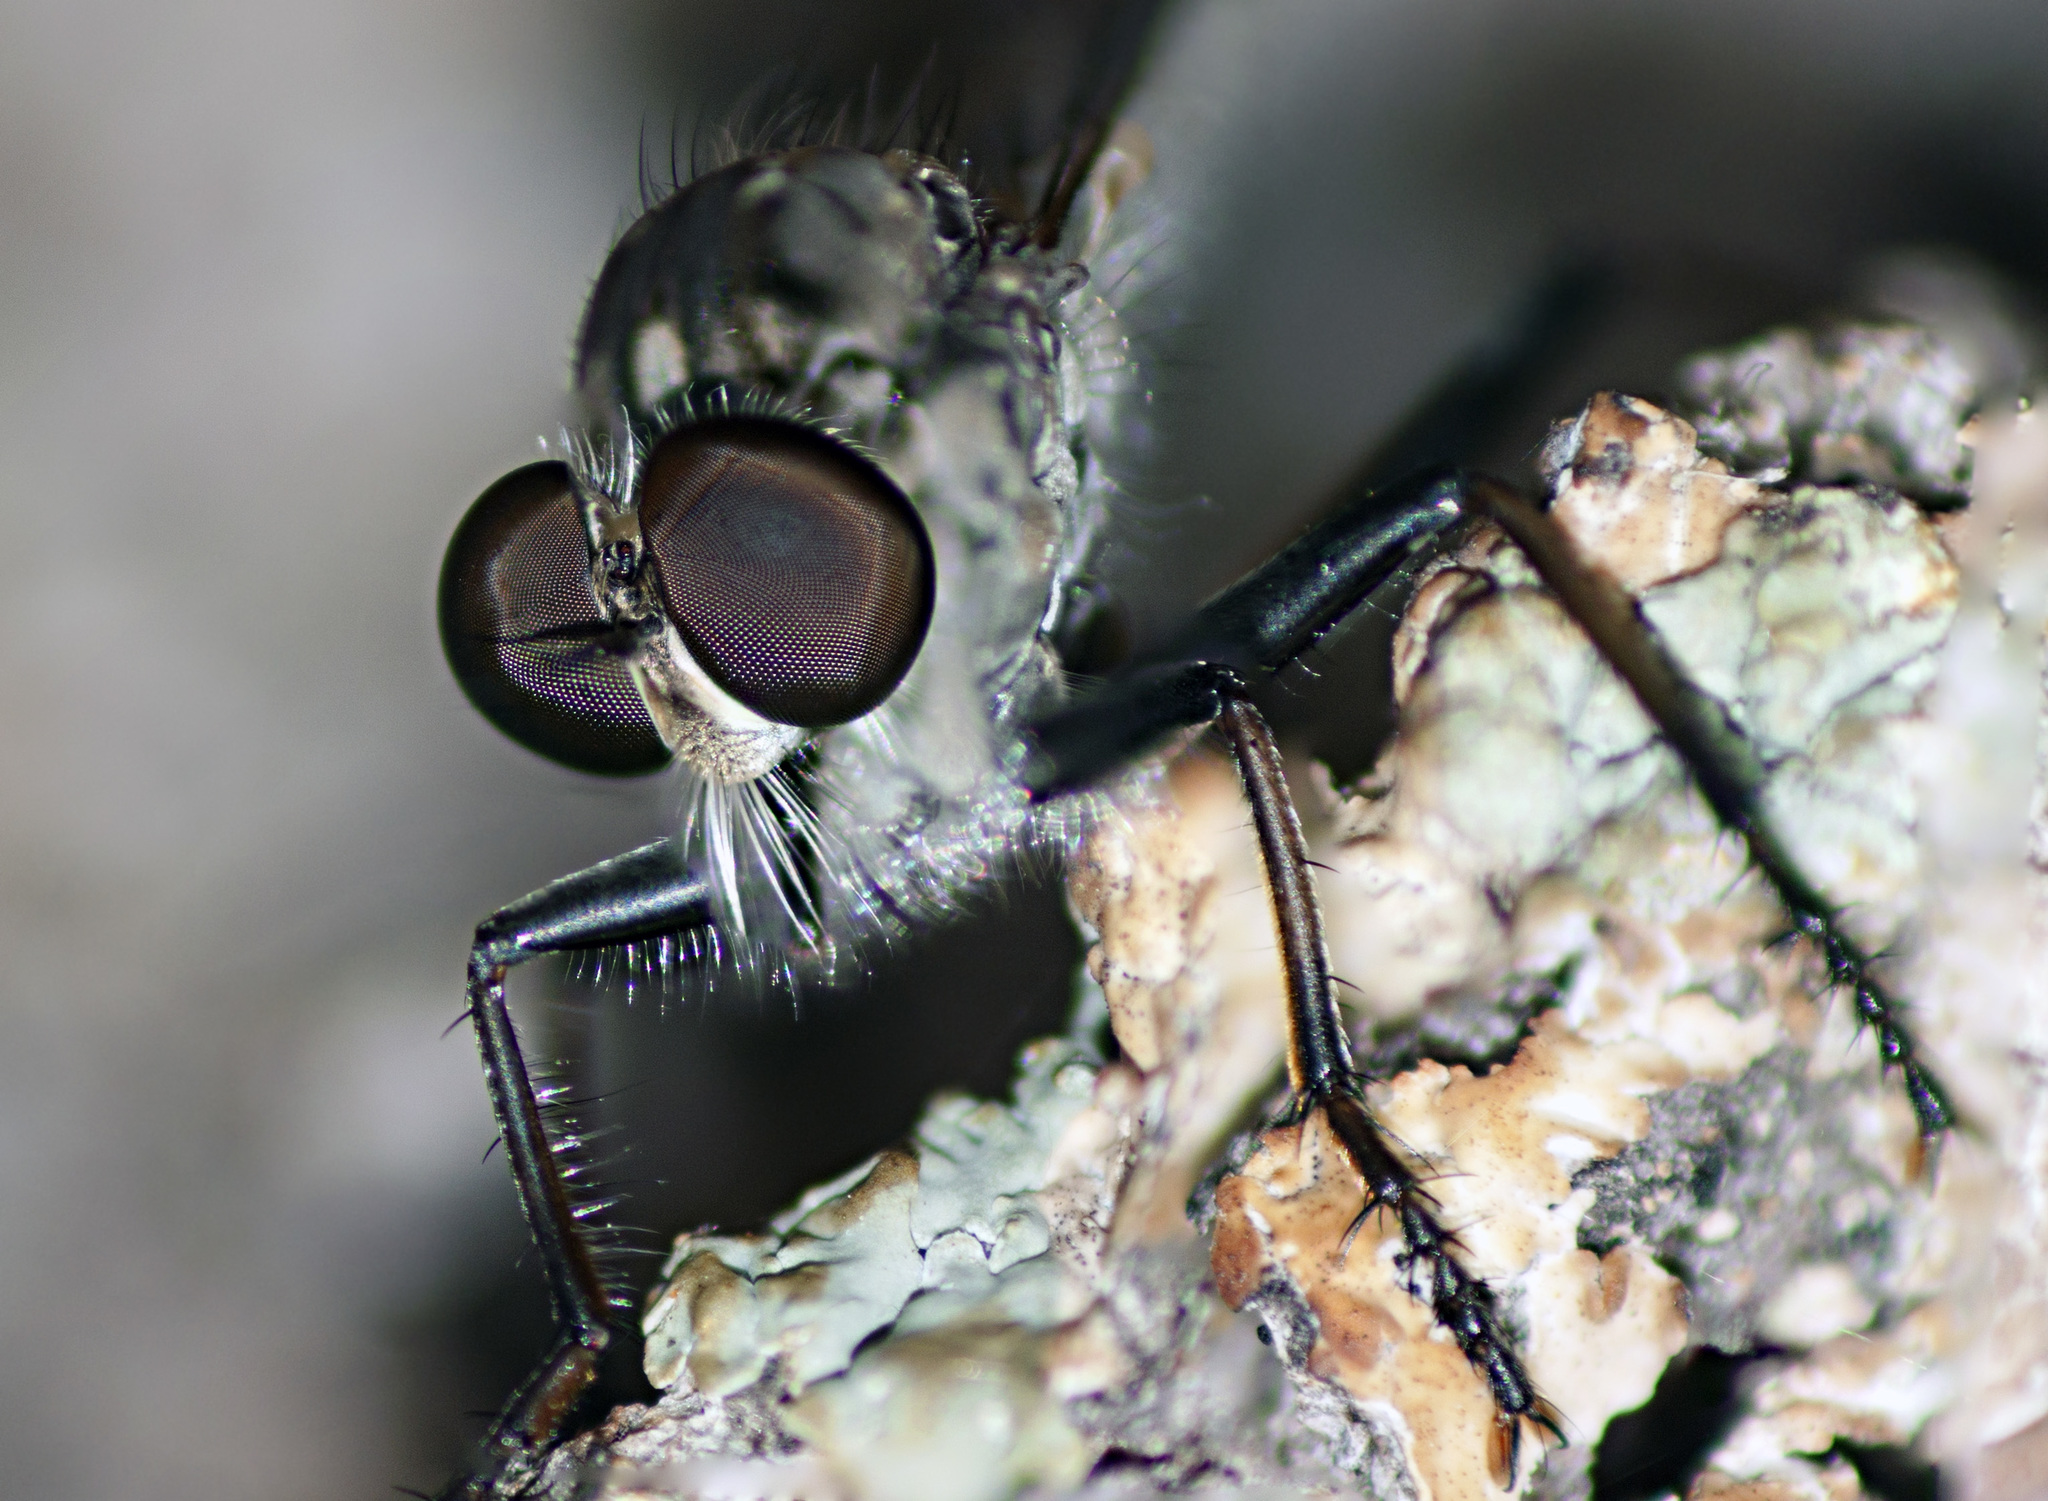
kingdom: Animalia
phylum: Arthropoda
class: Insecta
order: Diptera
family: Asilidae
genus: Cerdistus
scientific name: Cerdistus varimystaceus
